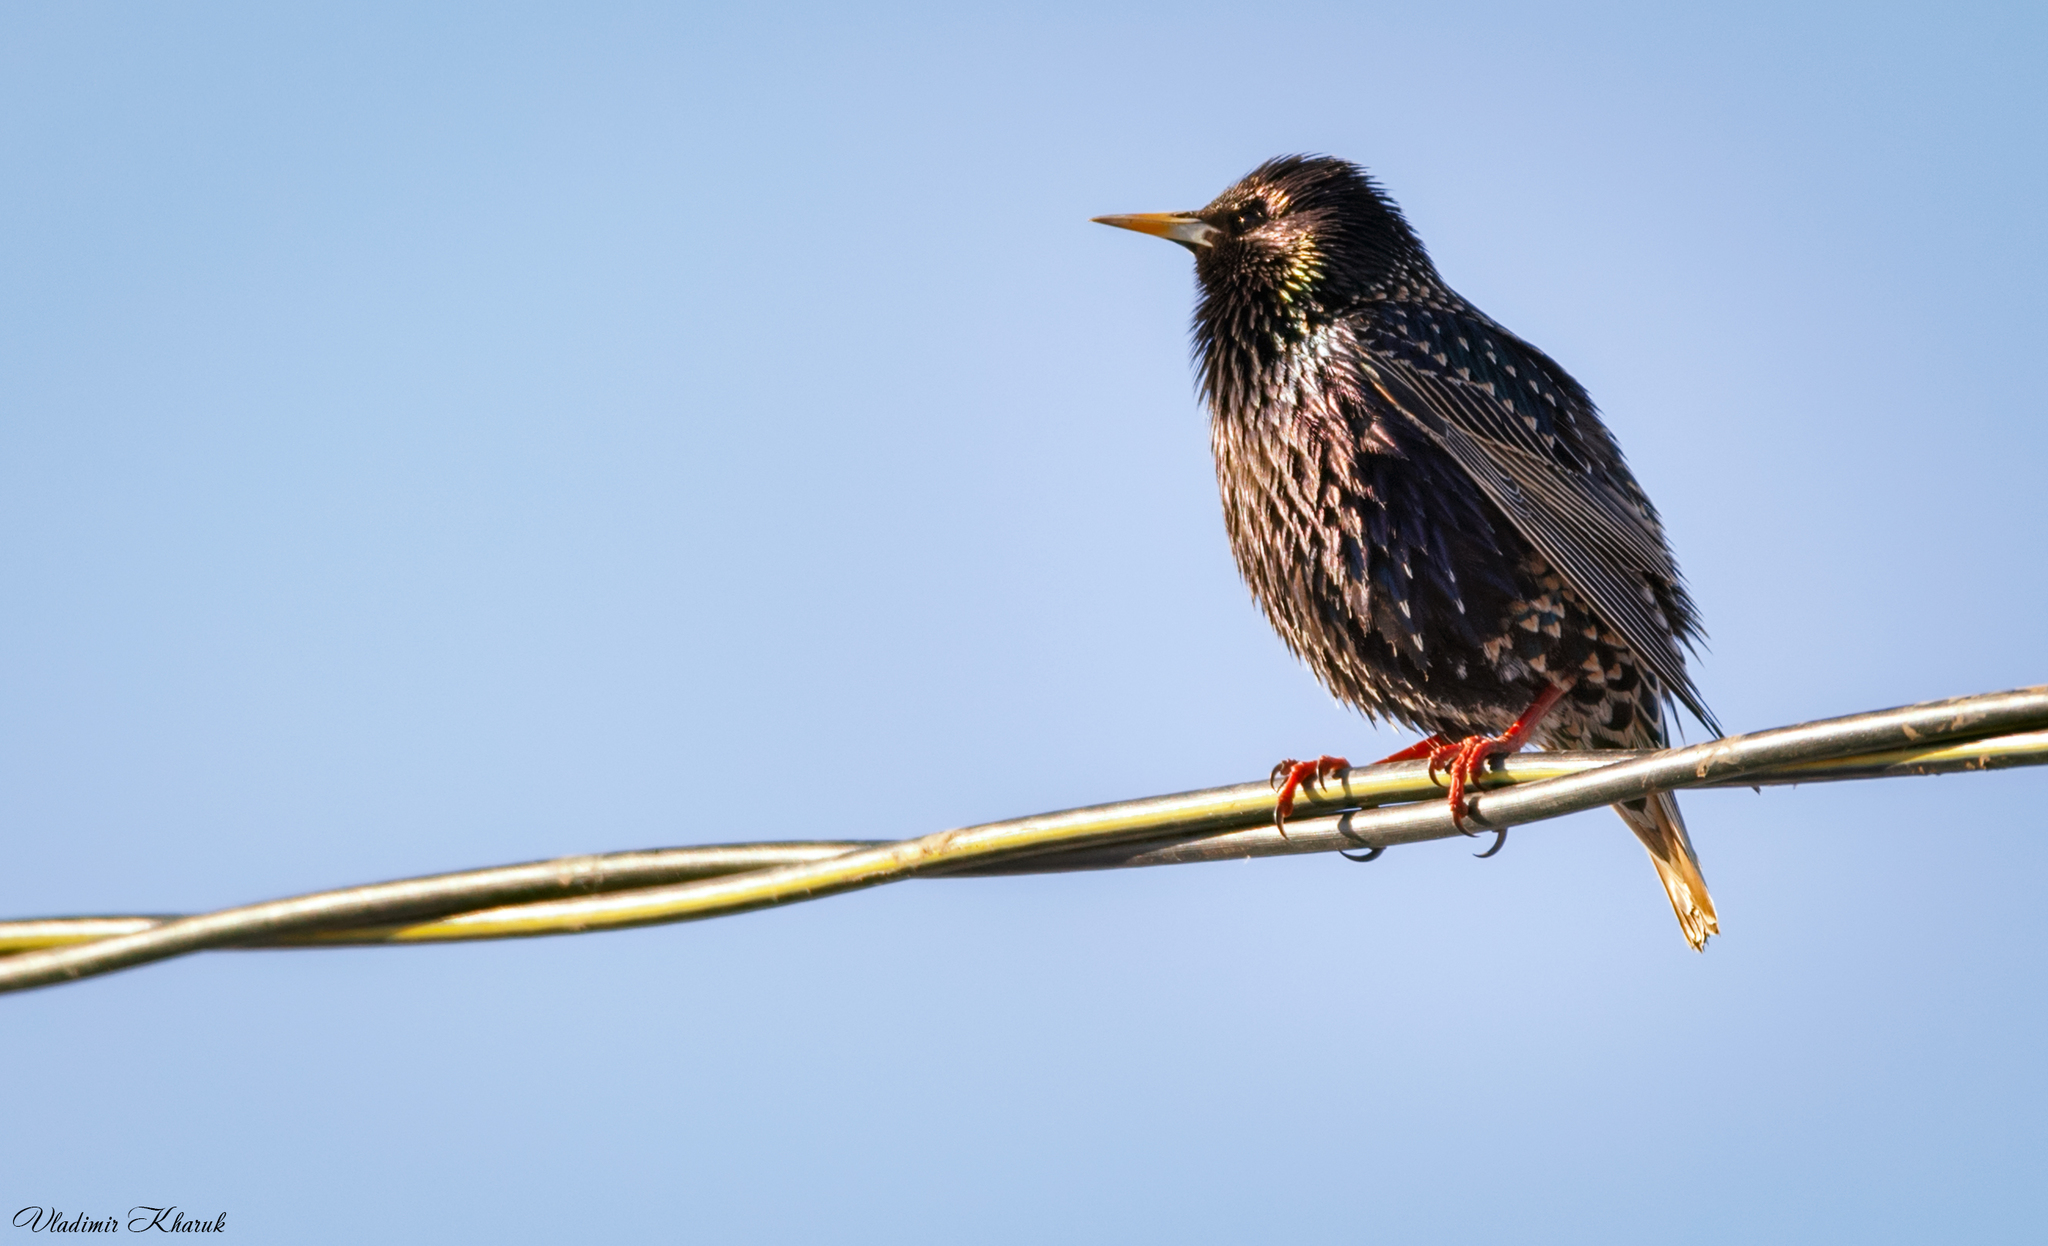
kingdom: Animalia
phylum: Chordata
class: Aves
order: Passeriformes
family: Sturnidae
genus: Sturnus
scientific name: Sturnus vulgaris
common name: Common starling
